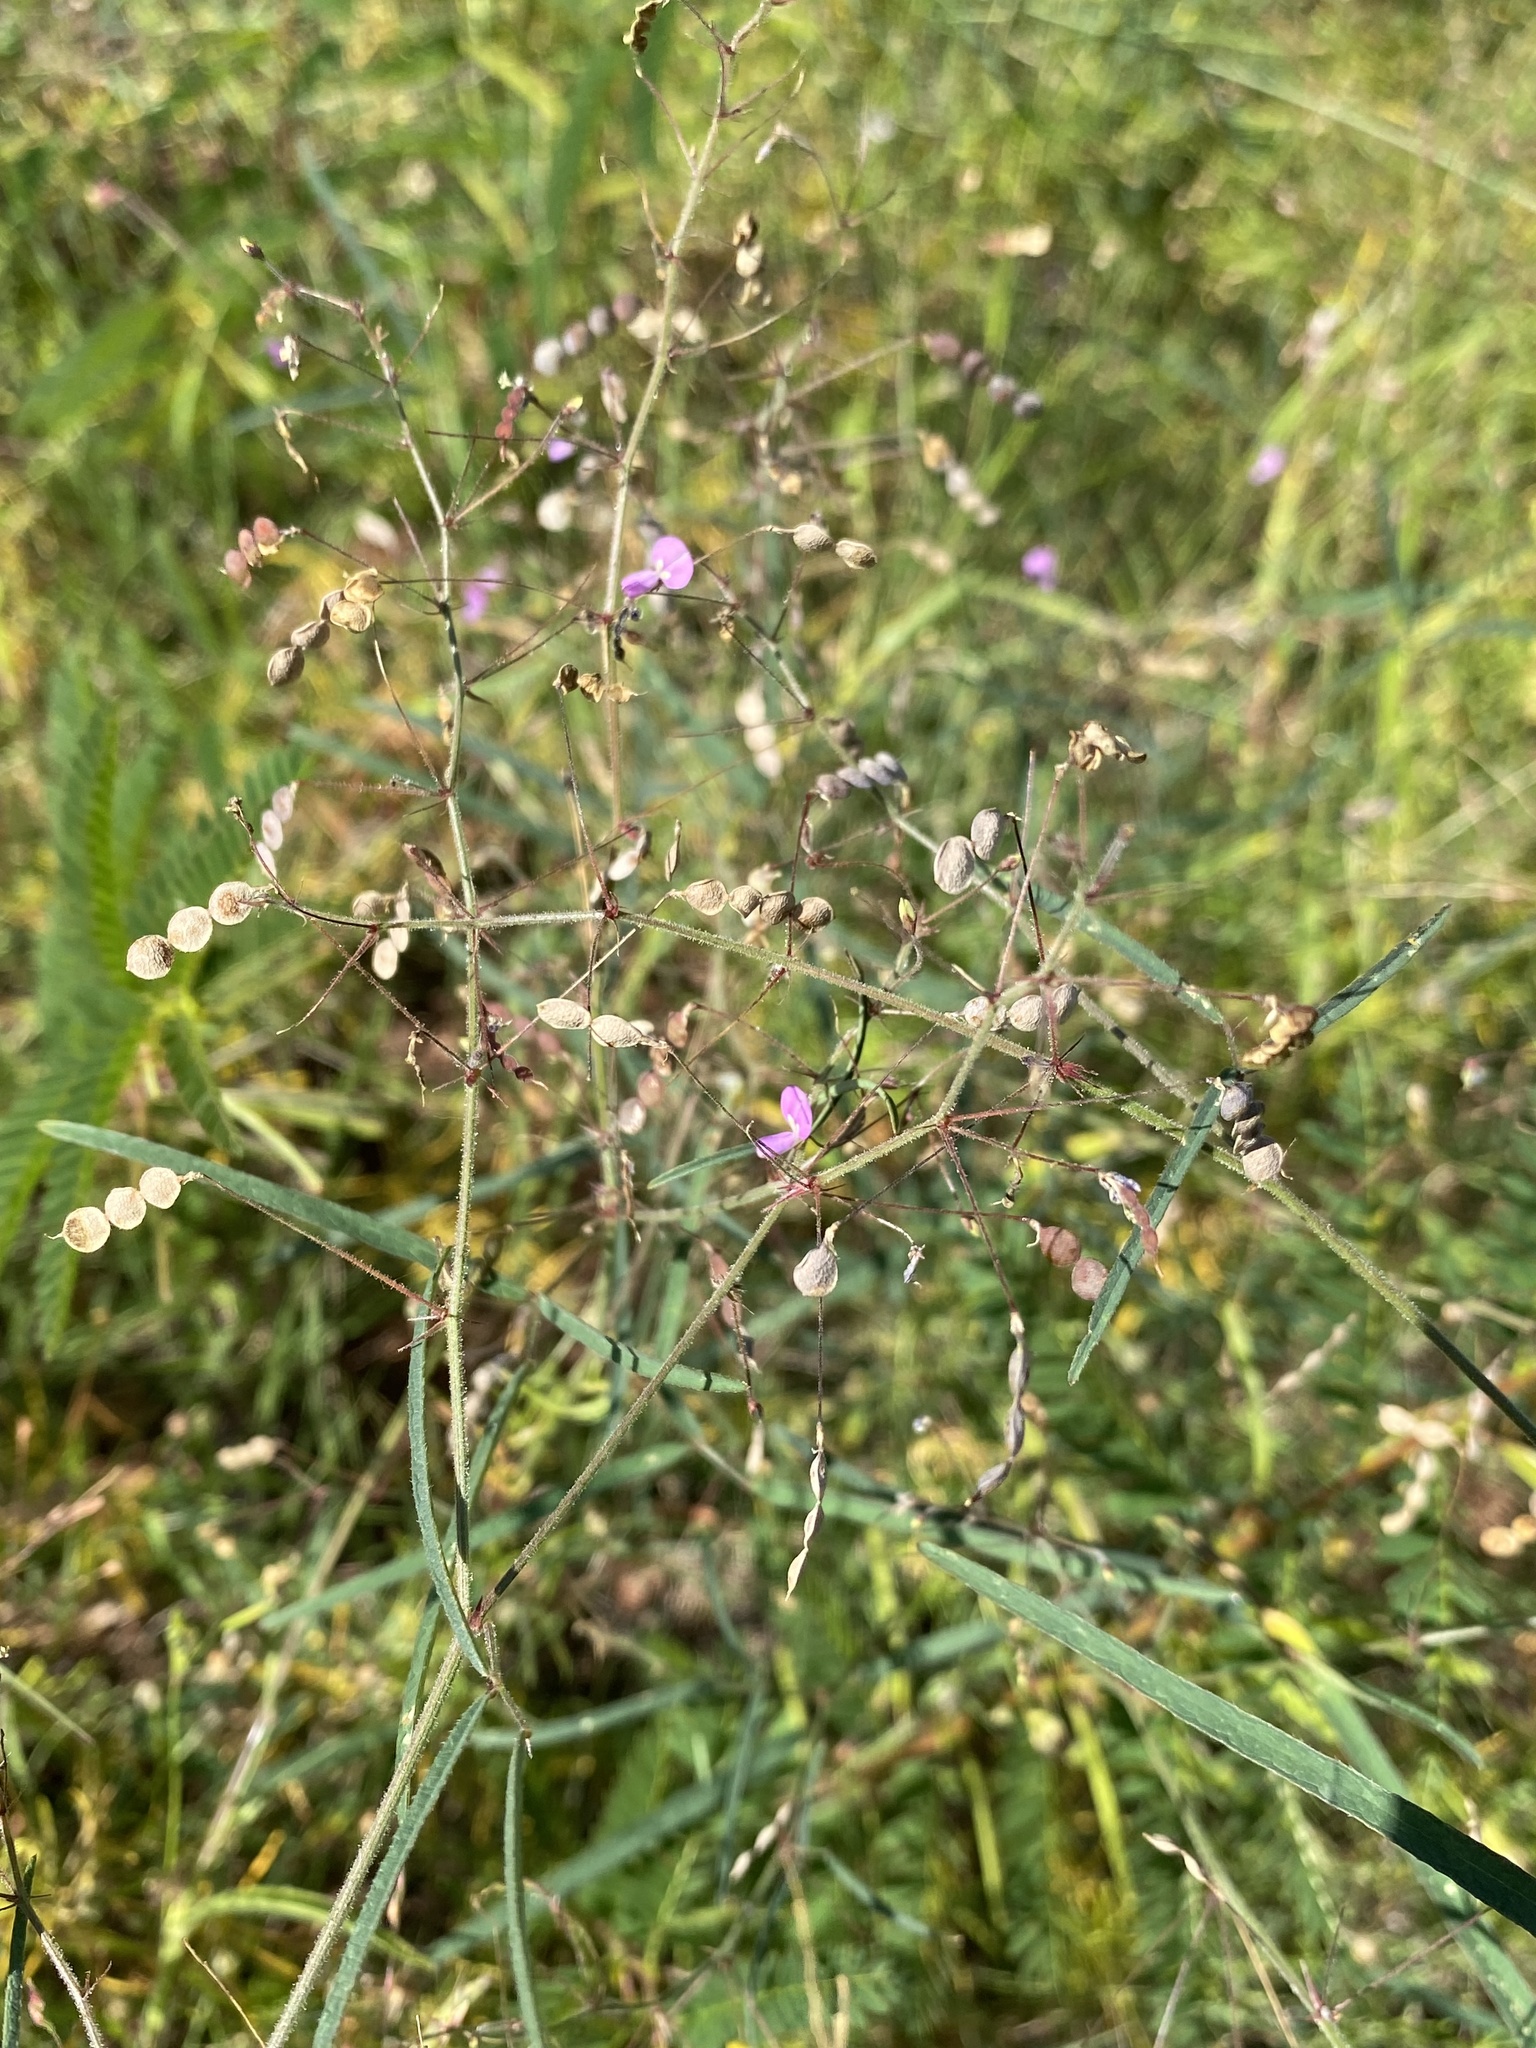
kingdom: Plantae
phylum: Tracheophyta
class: Magnoliopsida
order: Fabales
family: Fabaceae
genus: Desmodium
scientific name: Desmodium rosei
